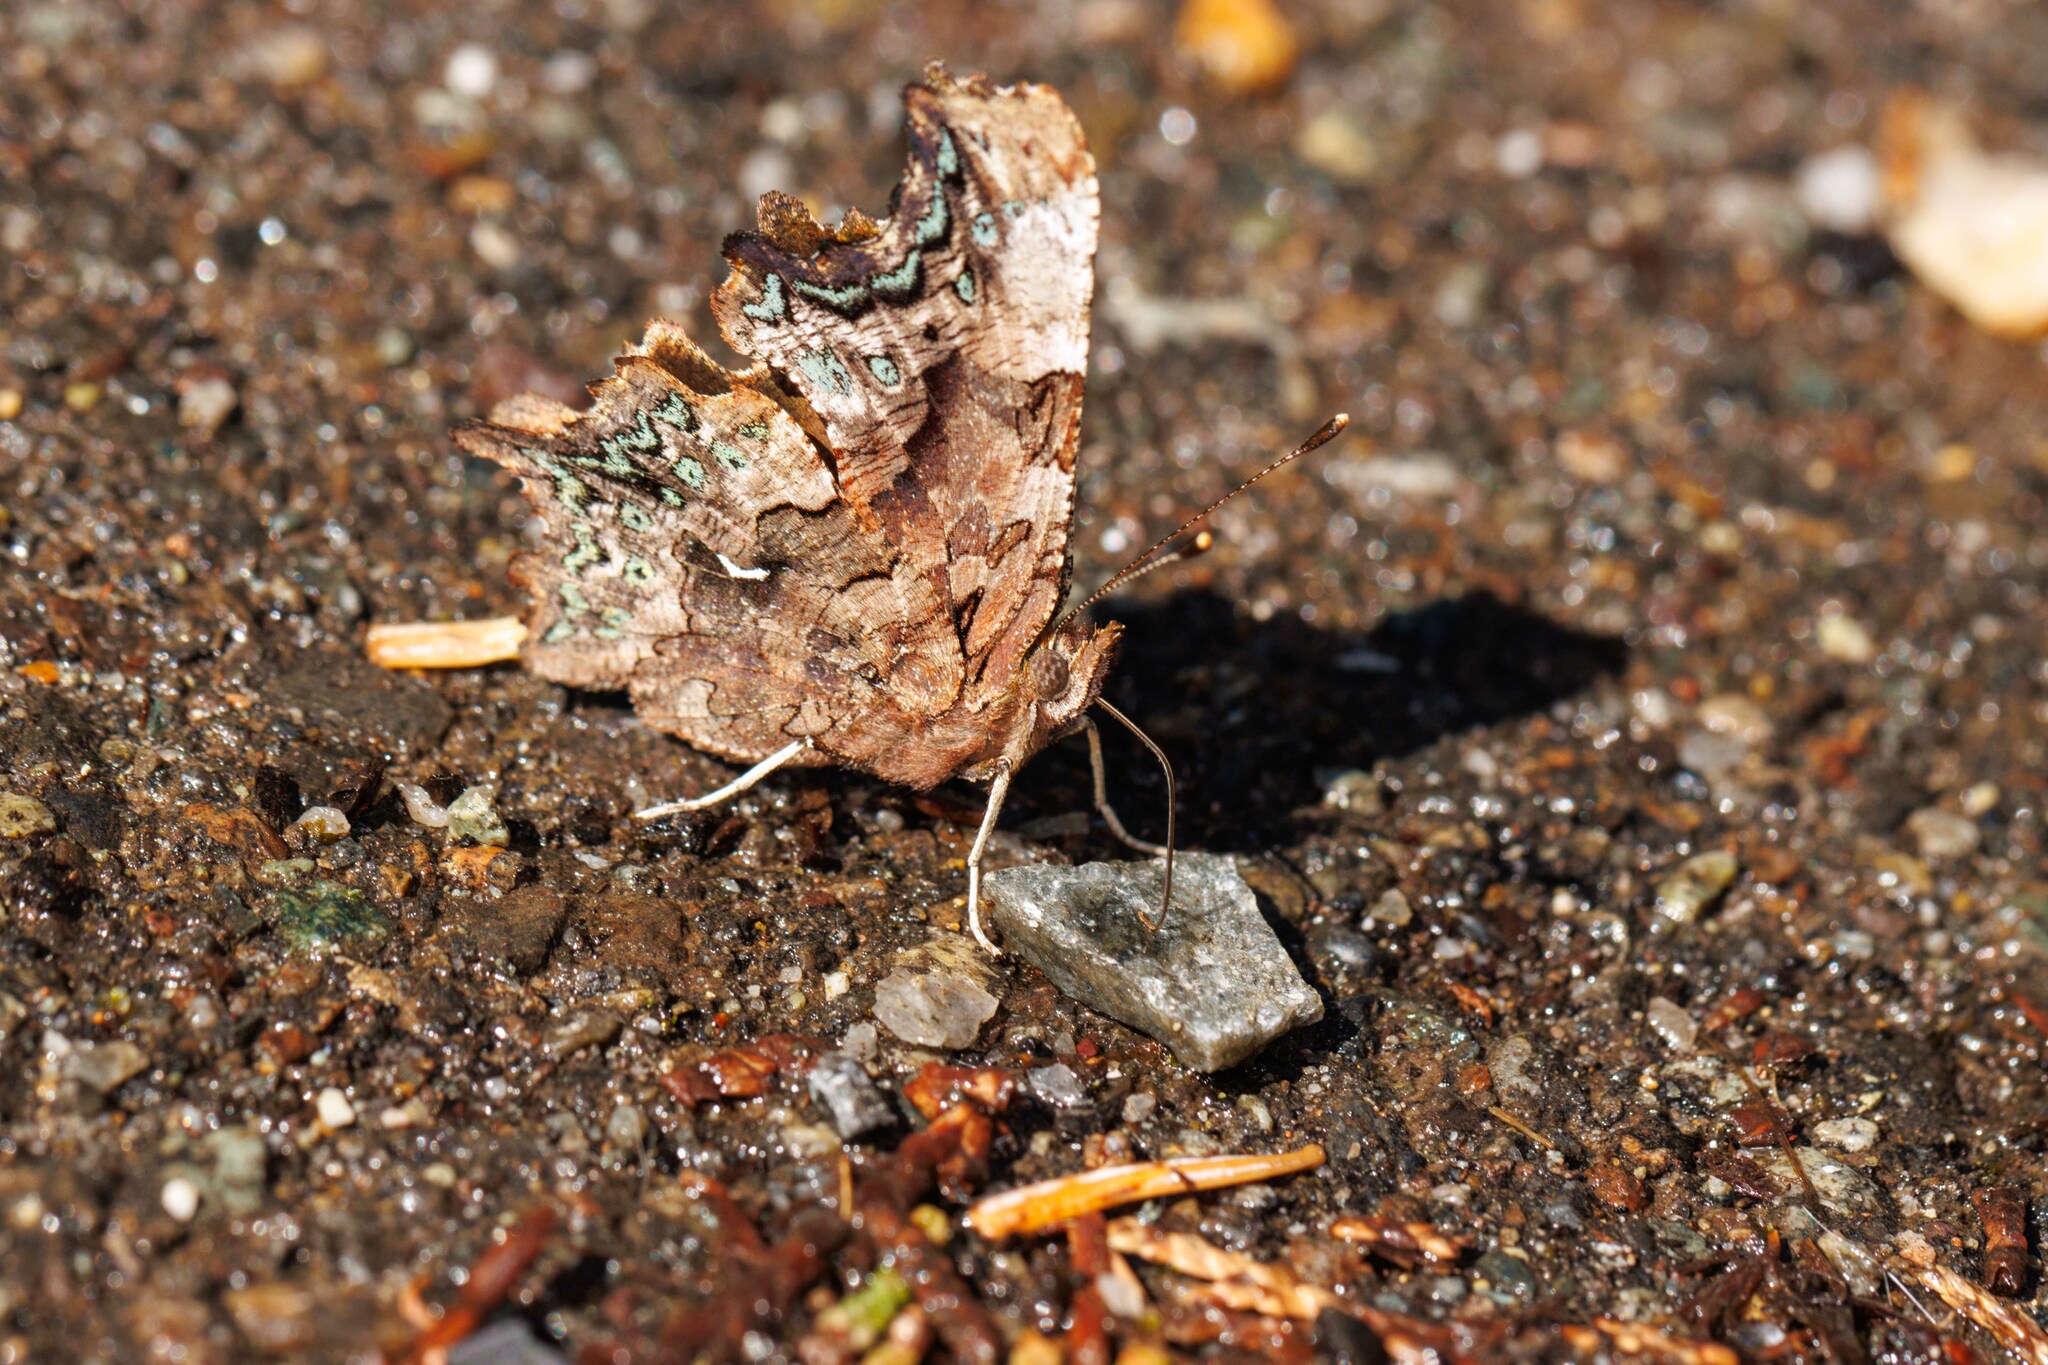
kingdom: Animalia
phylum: Arthropoda
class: Insecta
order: Lepidoptera
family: Nymphalidae
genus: Polygonia
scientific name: Polygonia faunus
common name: Green comma
